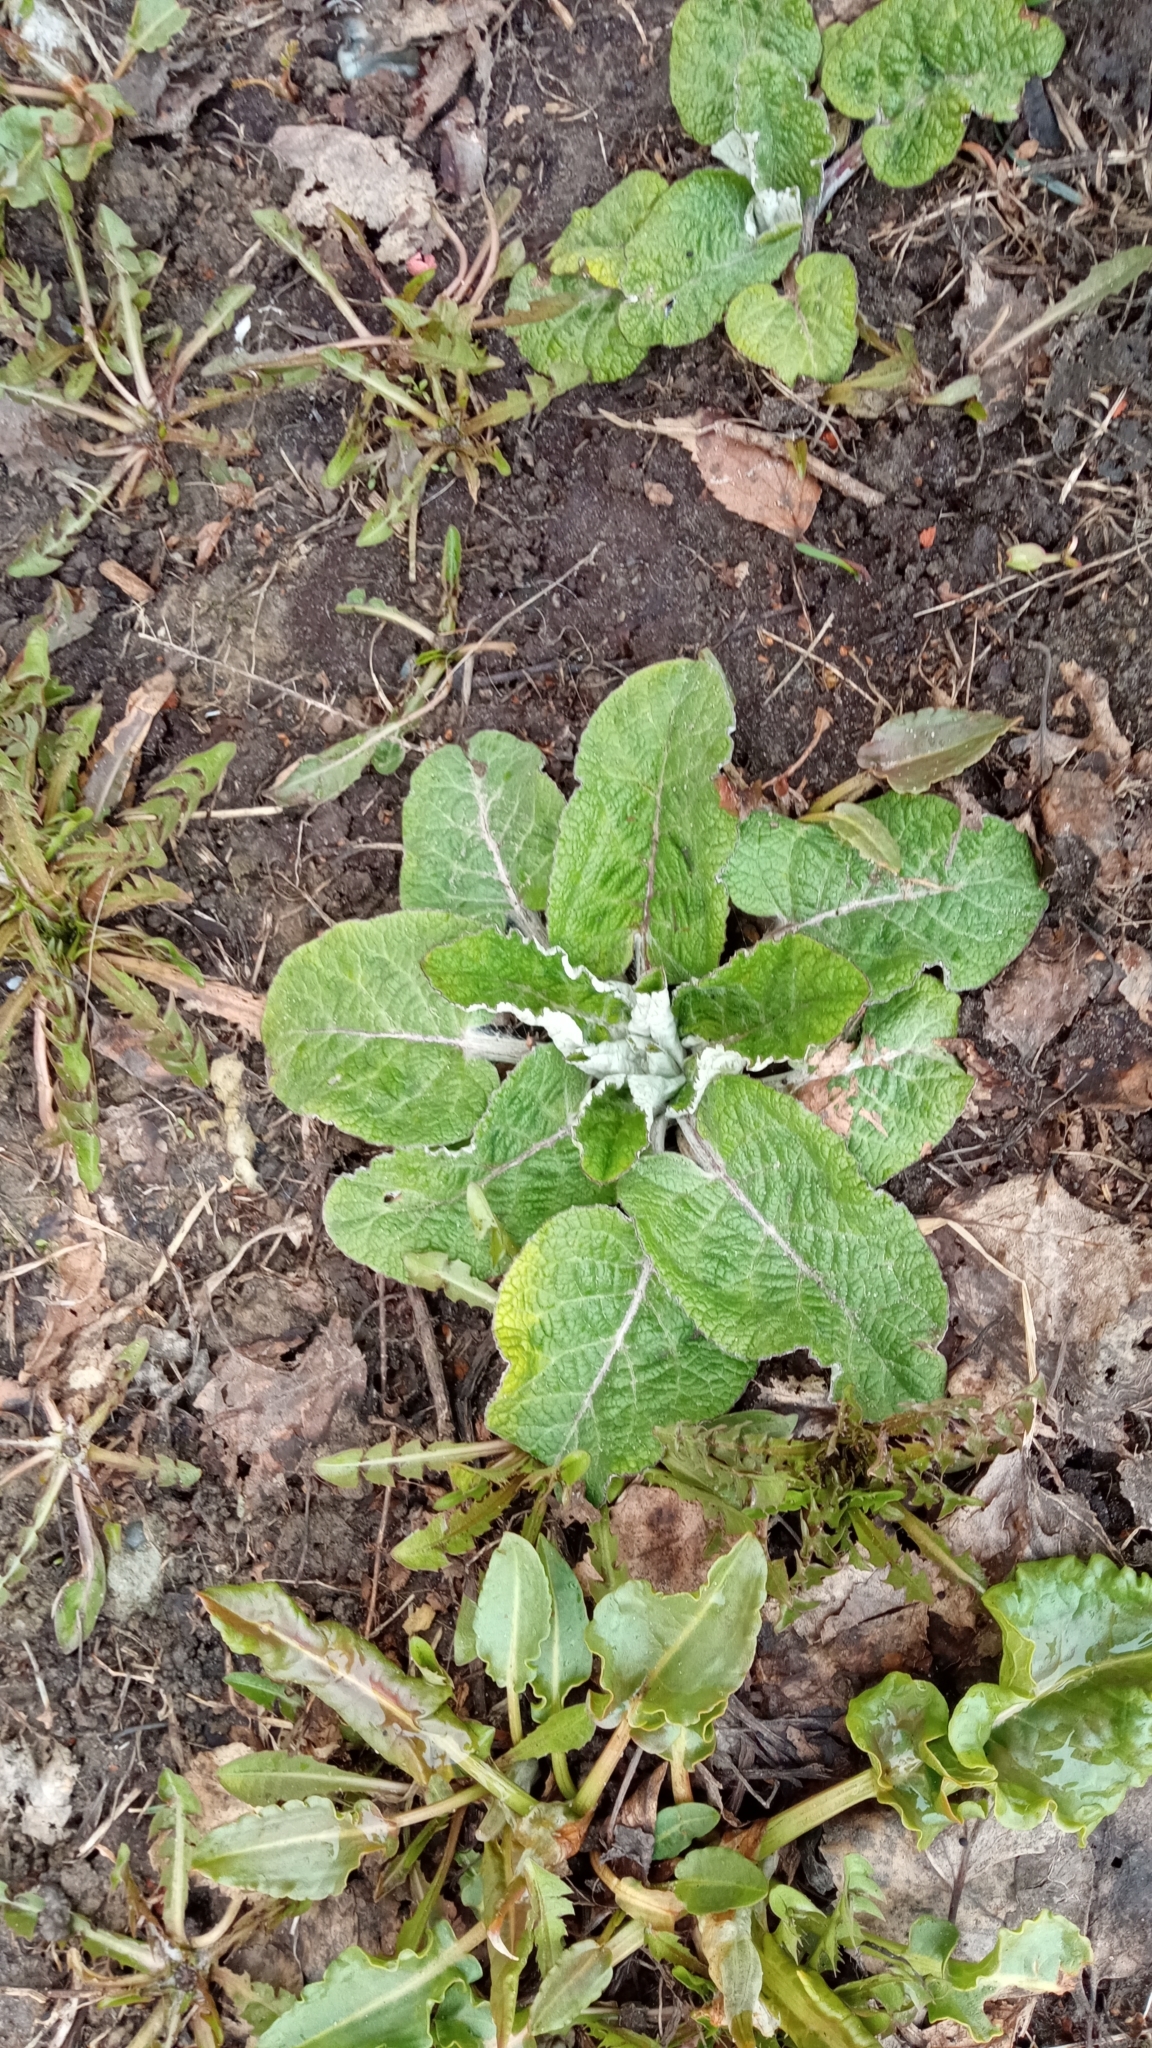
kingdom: Plantae
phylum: Tracheophyta
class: Magnoliopsida
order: Asterales
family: Asteraceae
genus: Arctium
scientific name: Arctium tomentosum
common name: Woolly burdock
